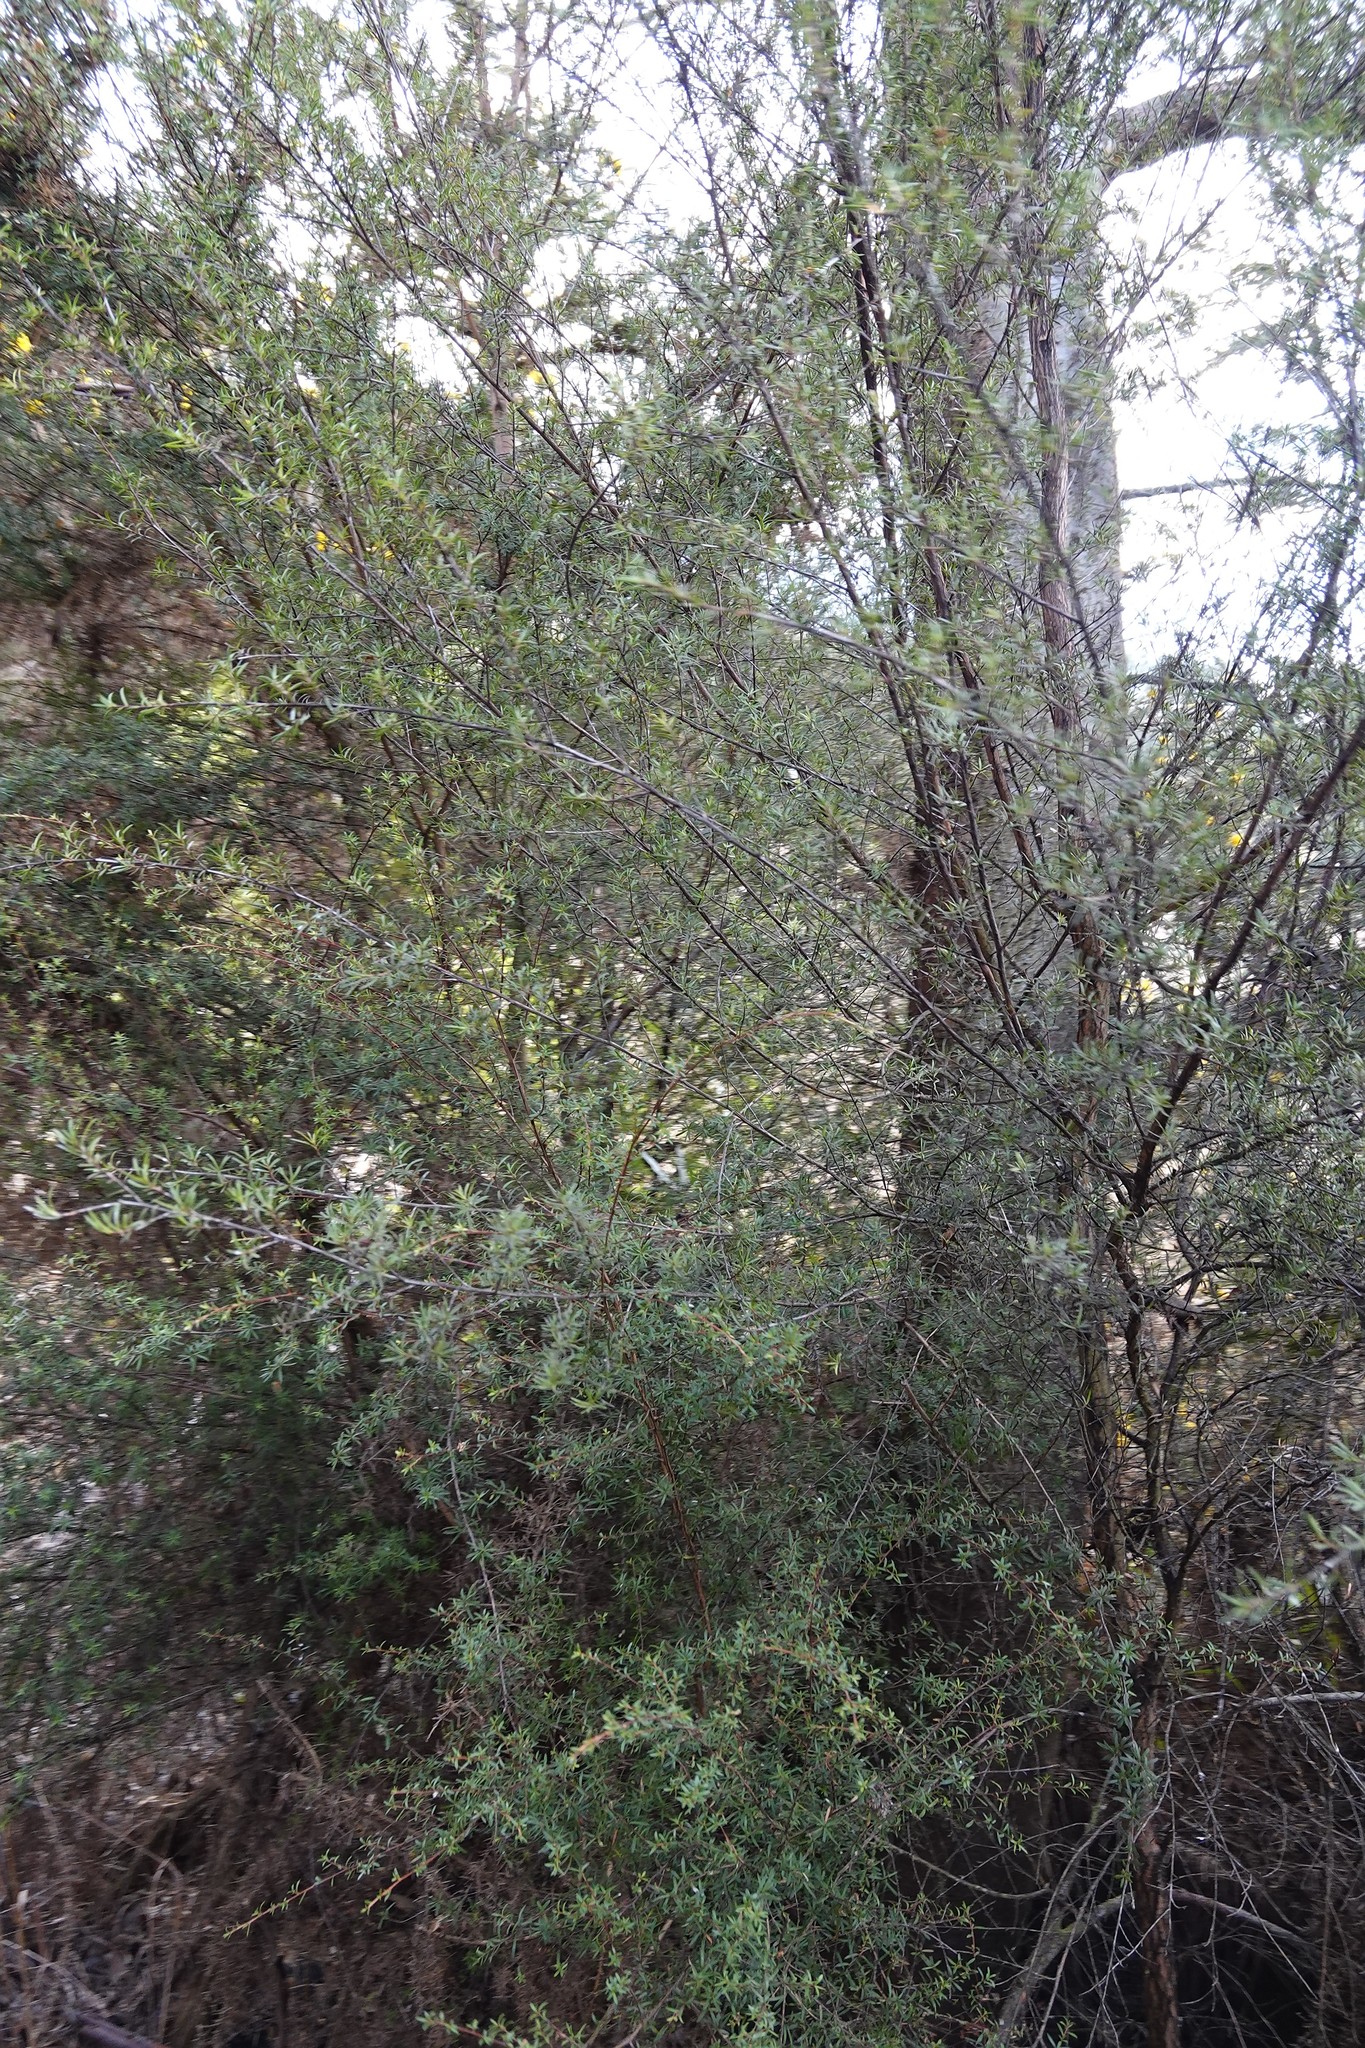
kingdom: Plantae
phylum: Tracheophyta
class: Magnoliopsida
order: Myrtales
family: Myrtaceae
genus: Kunzea
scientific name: Kunzea robusta
